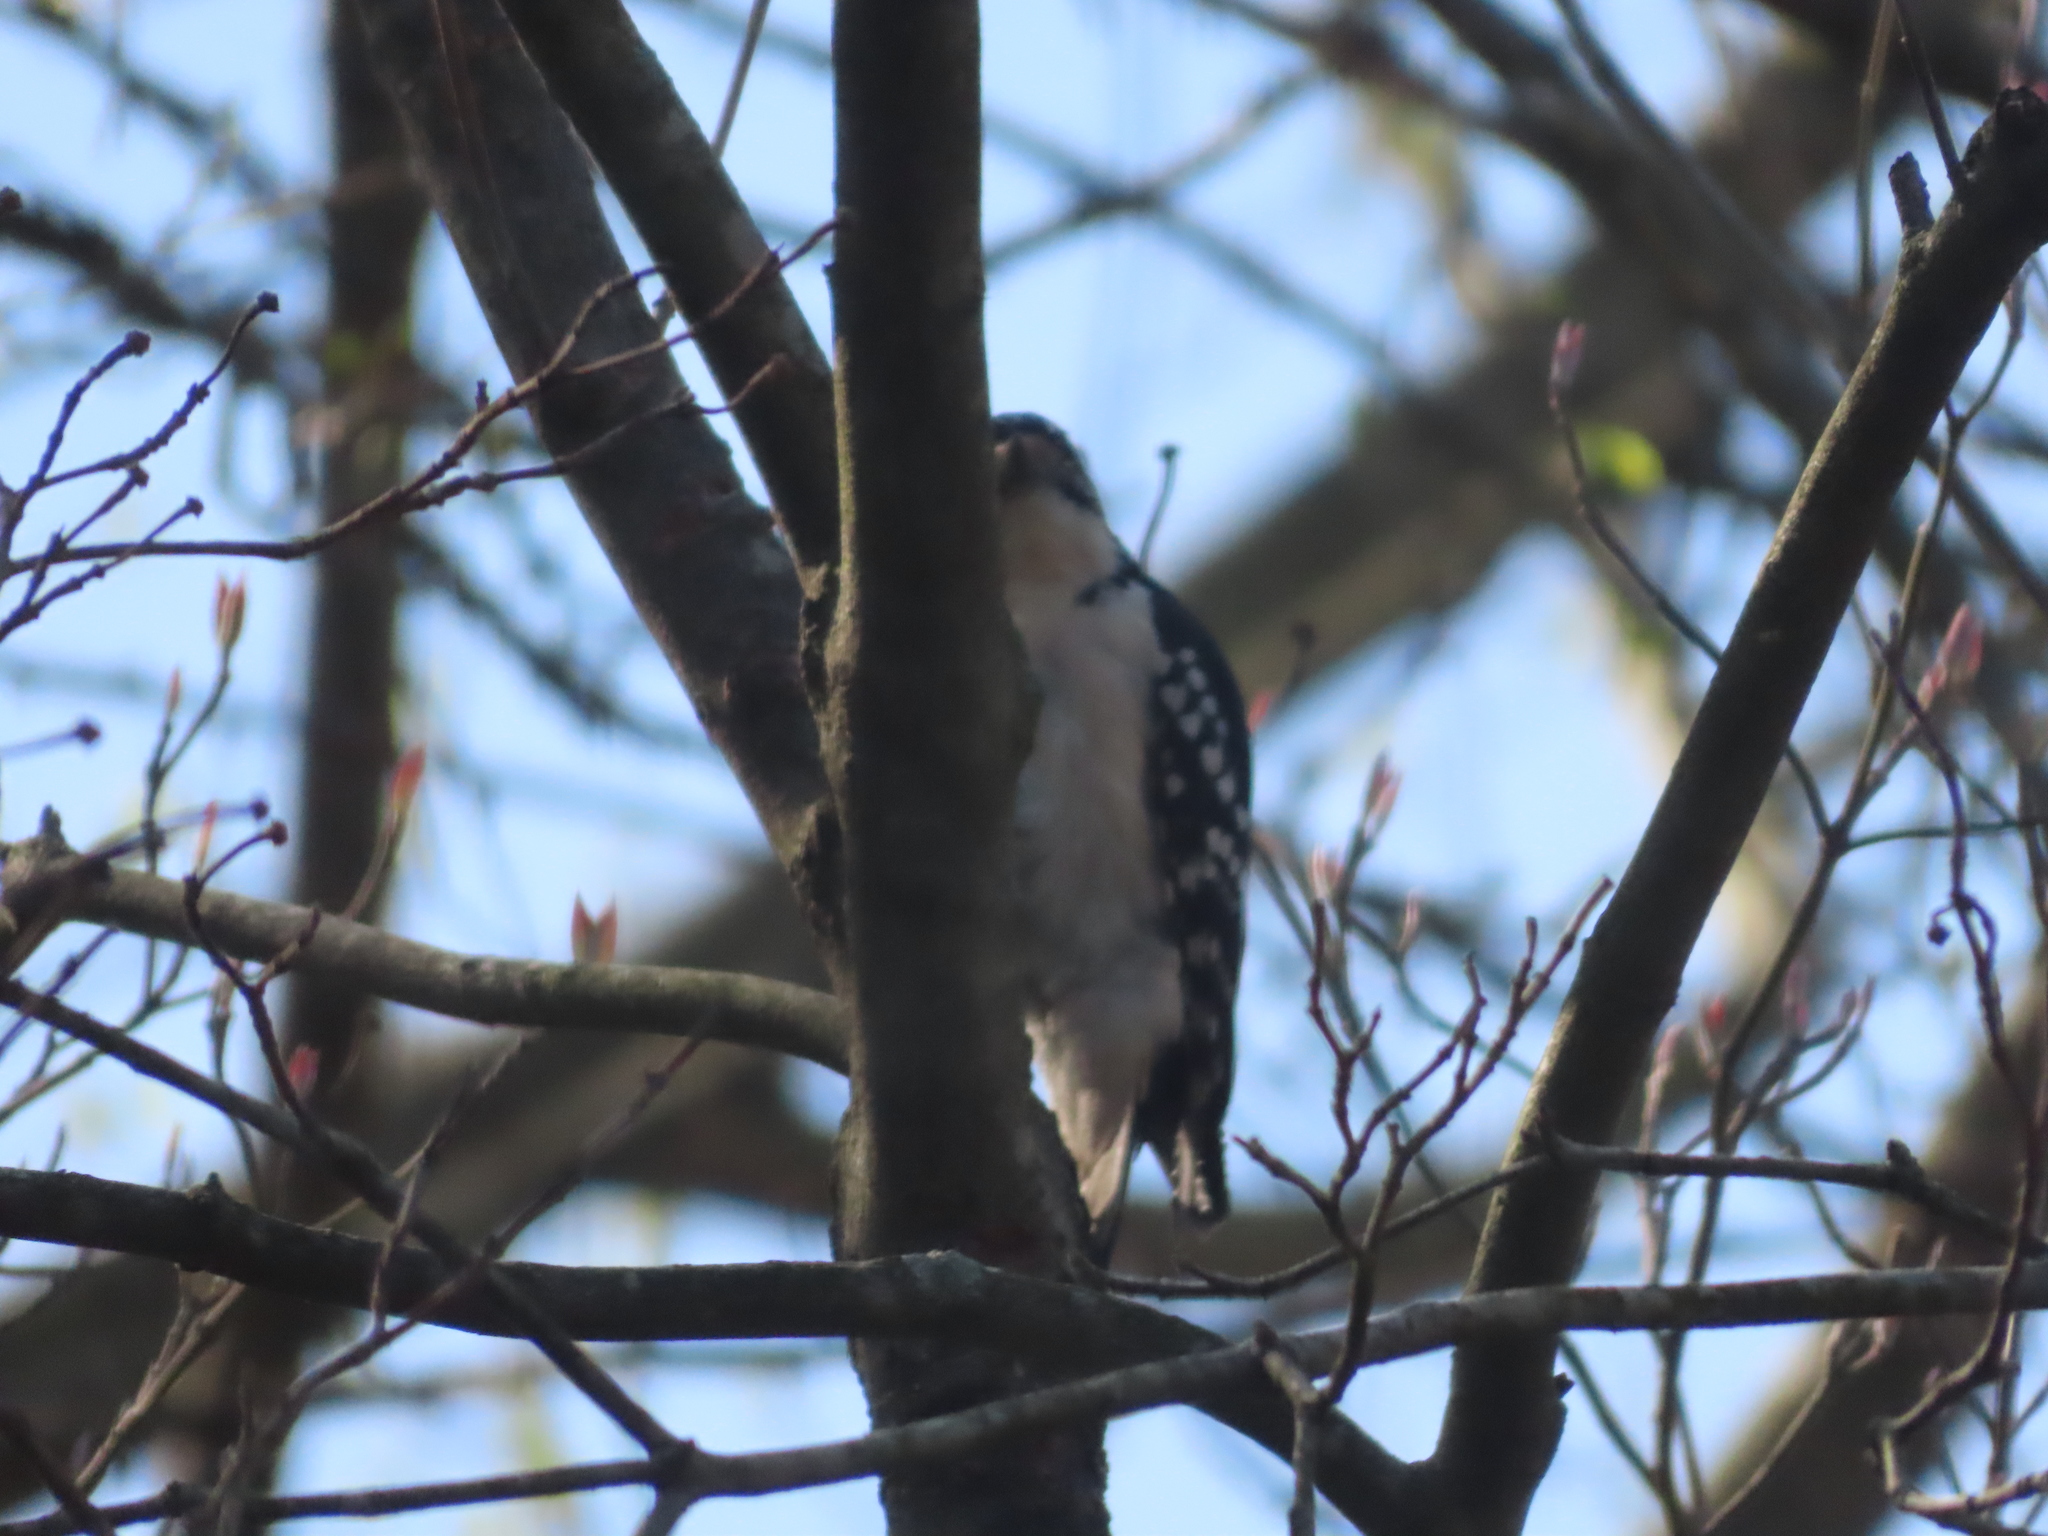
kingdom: Animalia
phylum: Chordata
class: Aves
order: Piciformes
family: Picidae
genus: Leuconotopicus
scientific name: Leuconotopicus villosus
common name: Hairy woodpecker
